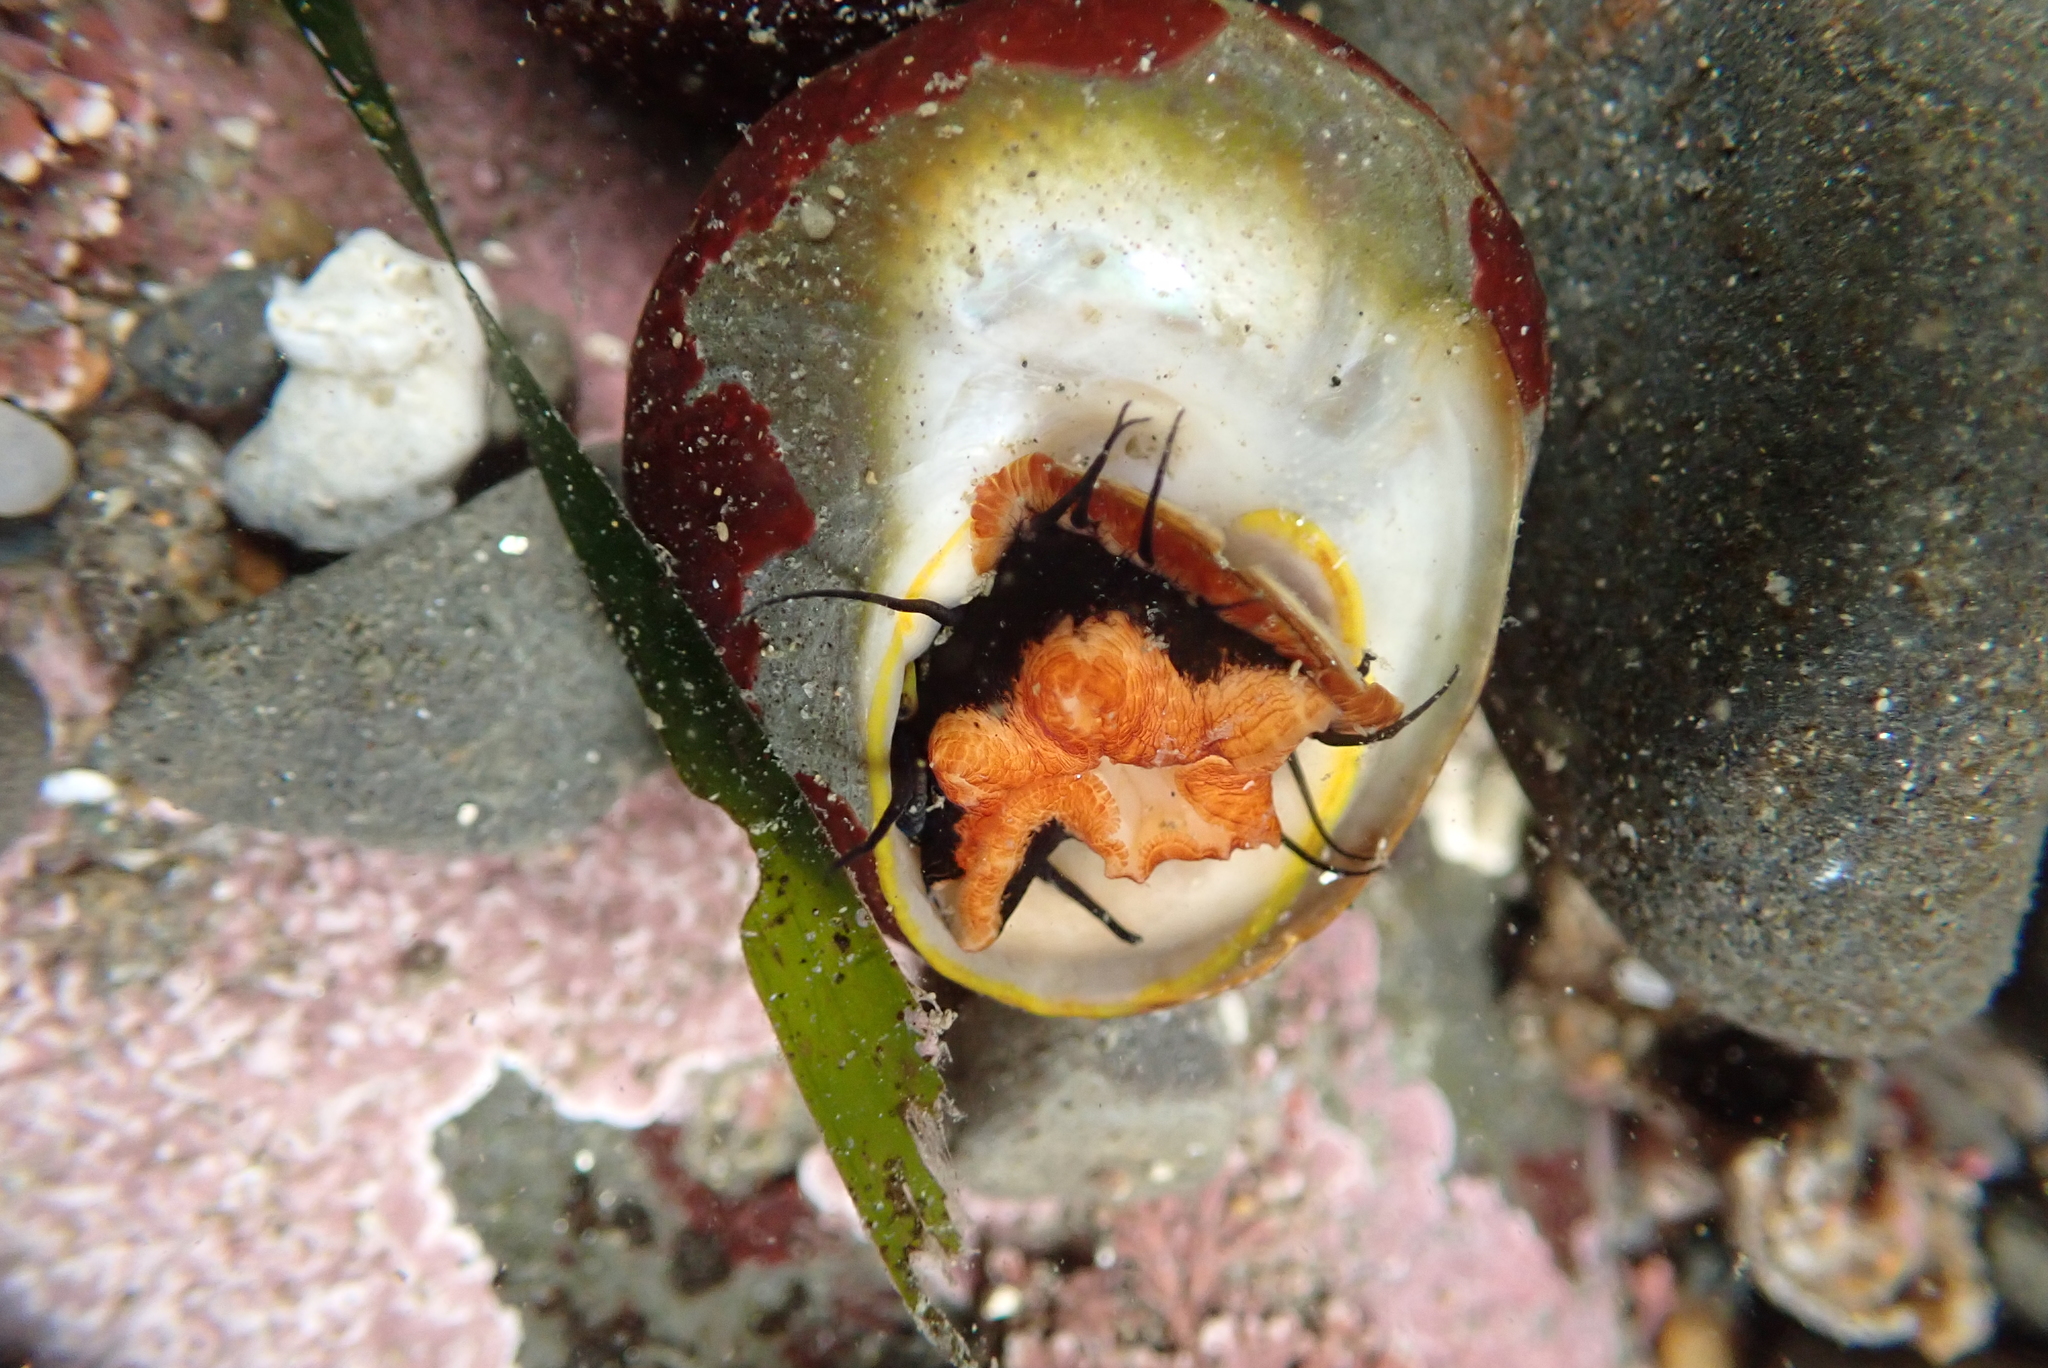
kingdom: Animalia
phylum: Mollusca
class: Gastropoda
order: Trochida
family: Tegulidae
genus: Tegula
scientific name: Tegula brunnea
